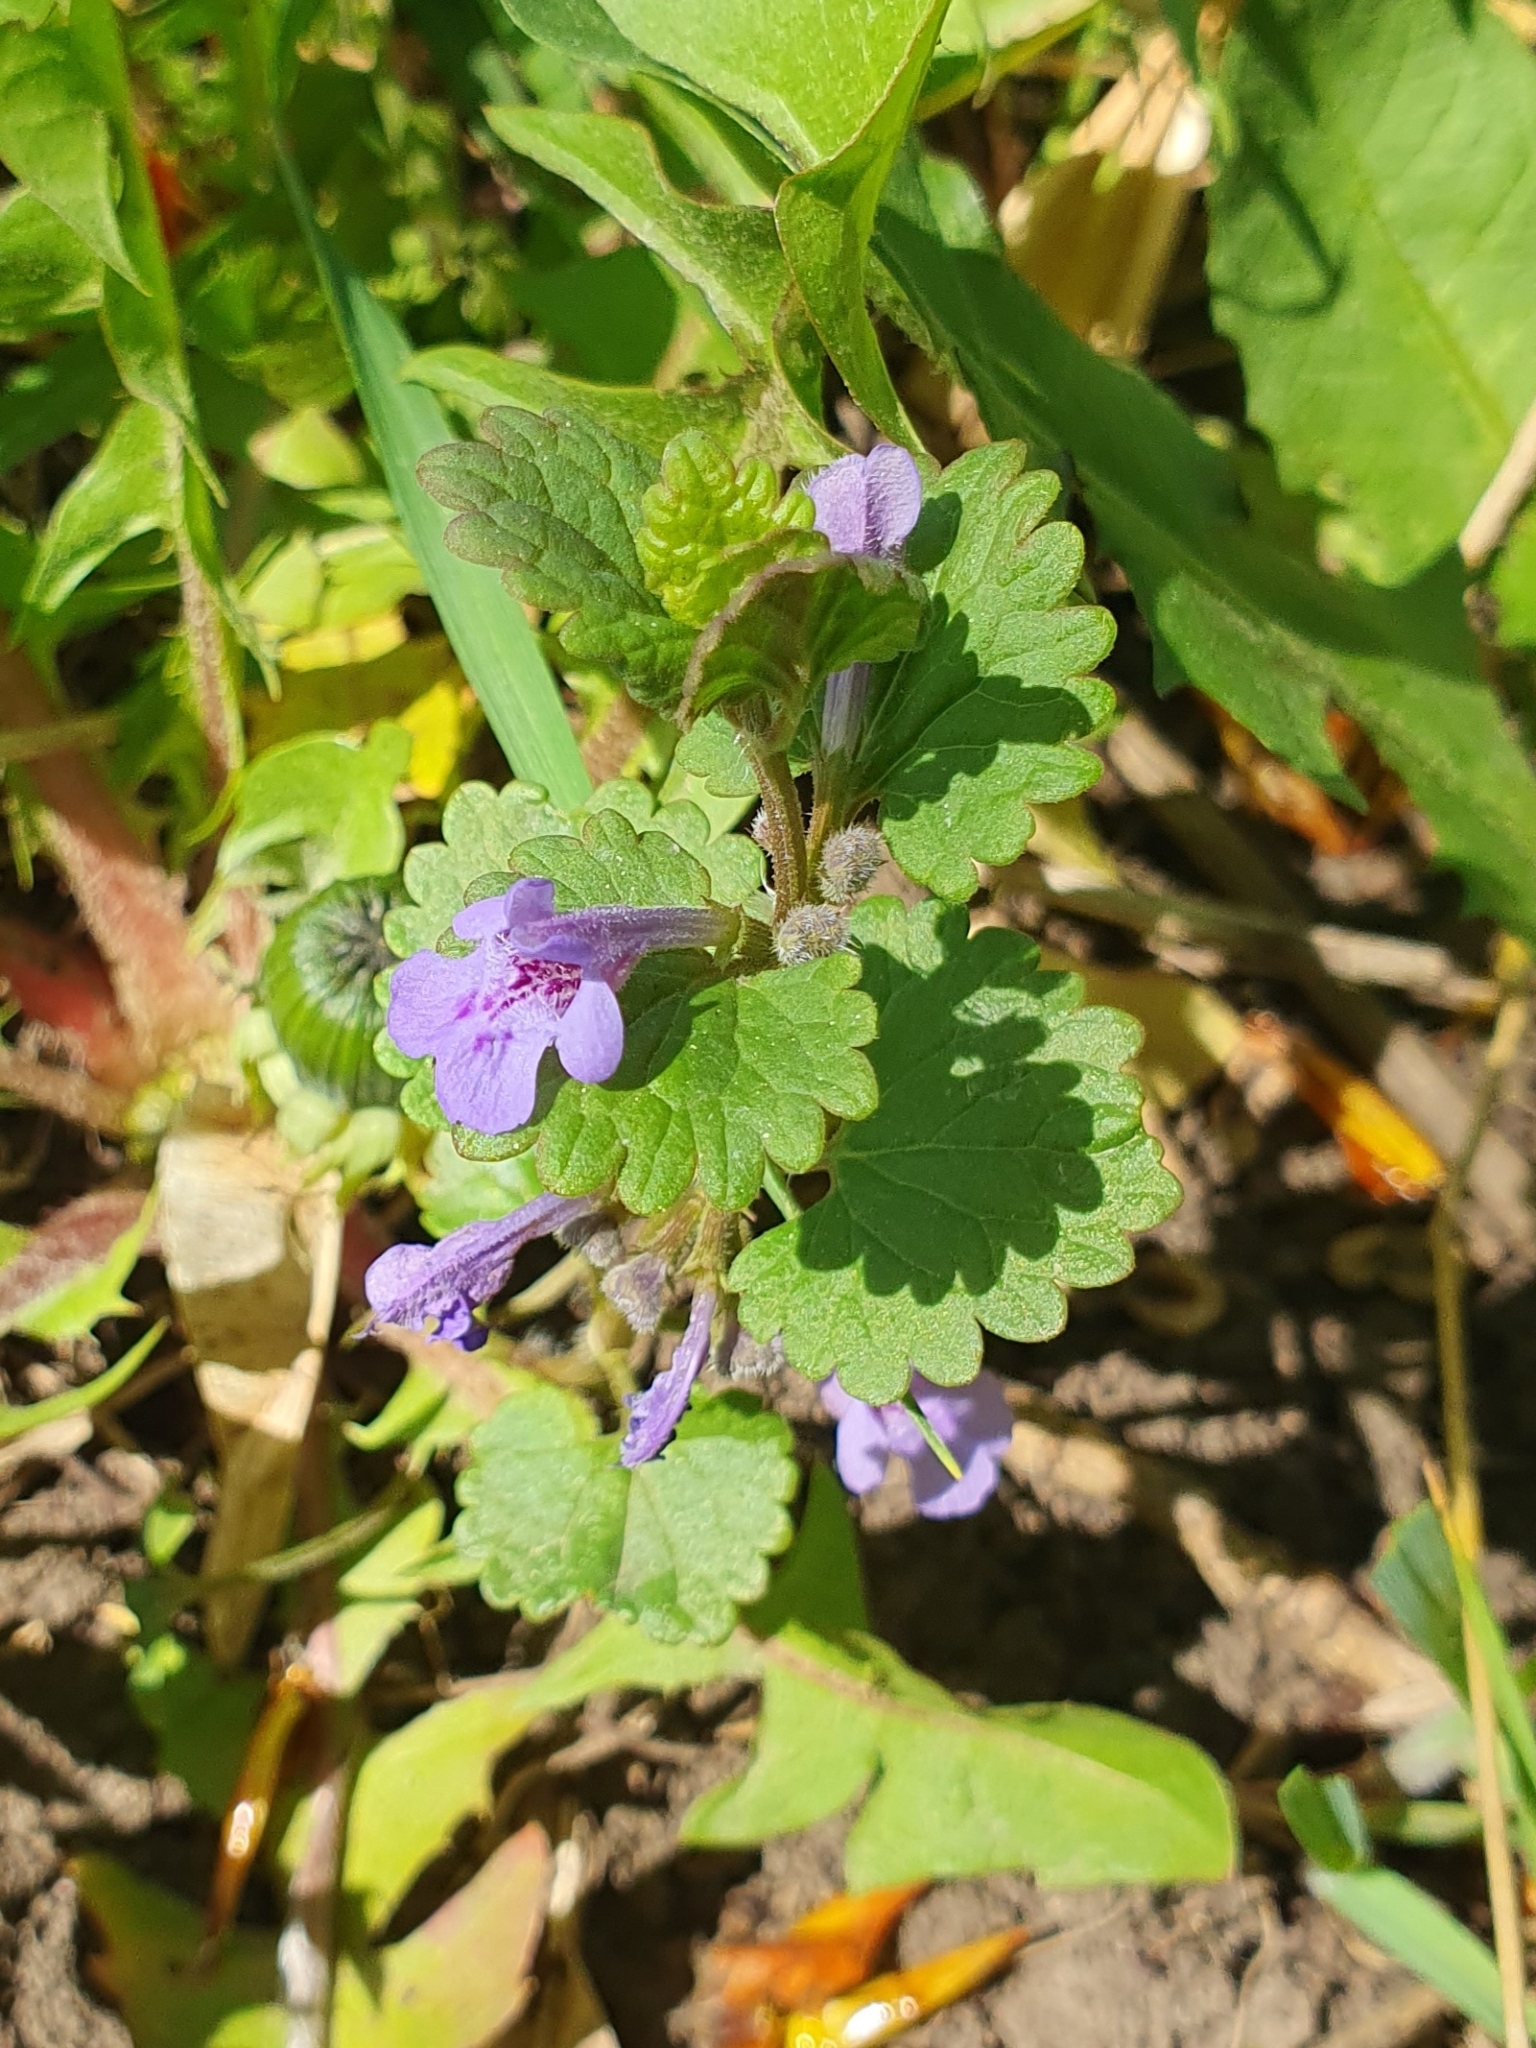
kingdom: Plantae
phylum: Tracheophyta
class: Magnoliopsida
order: Lamiales
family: Lamiaceae
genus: Glechoma
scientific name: Glechoma hederacea
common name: Ground ivy
